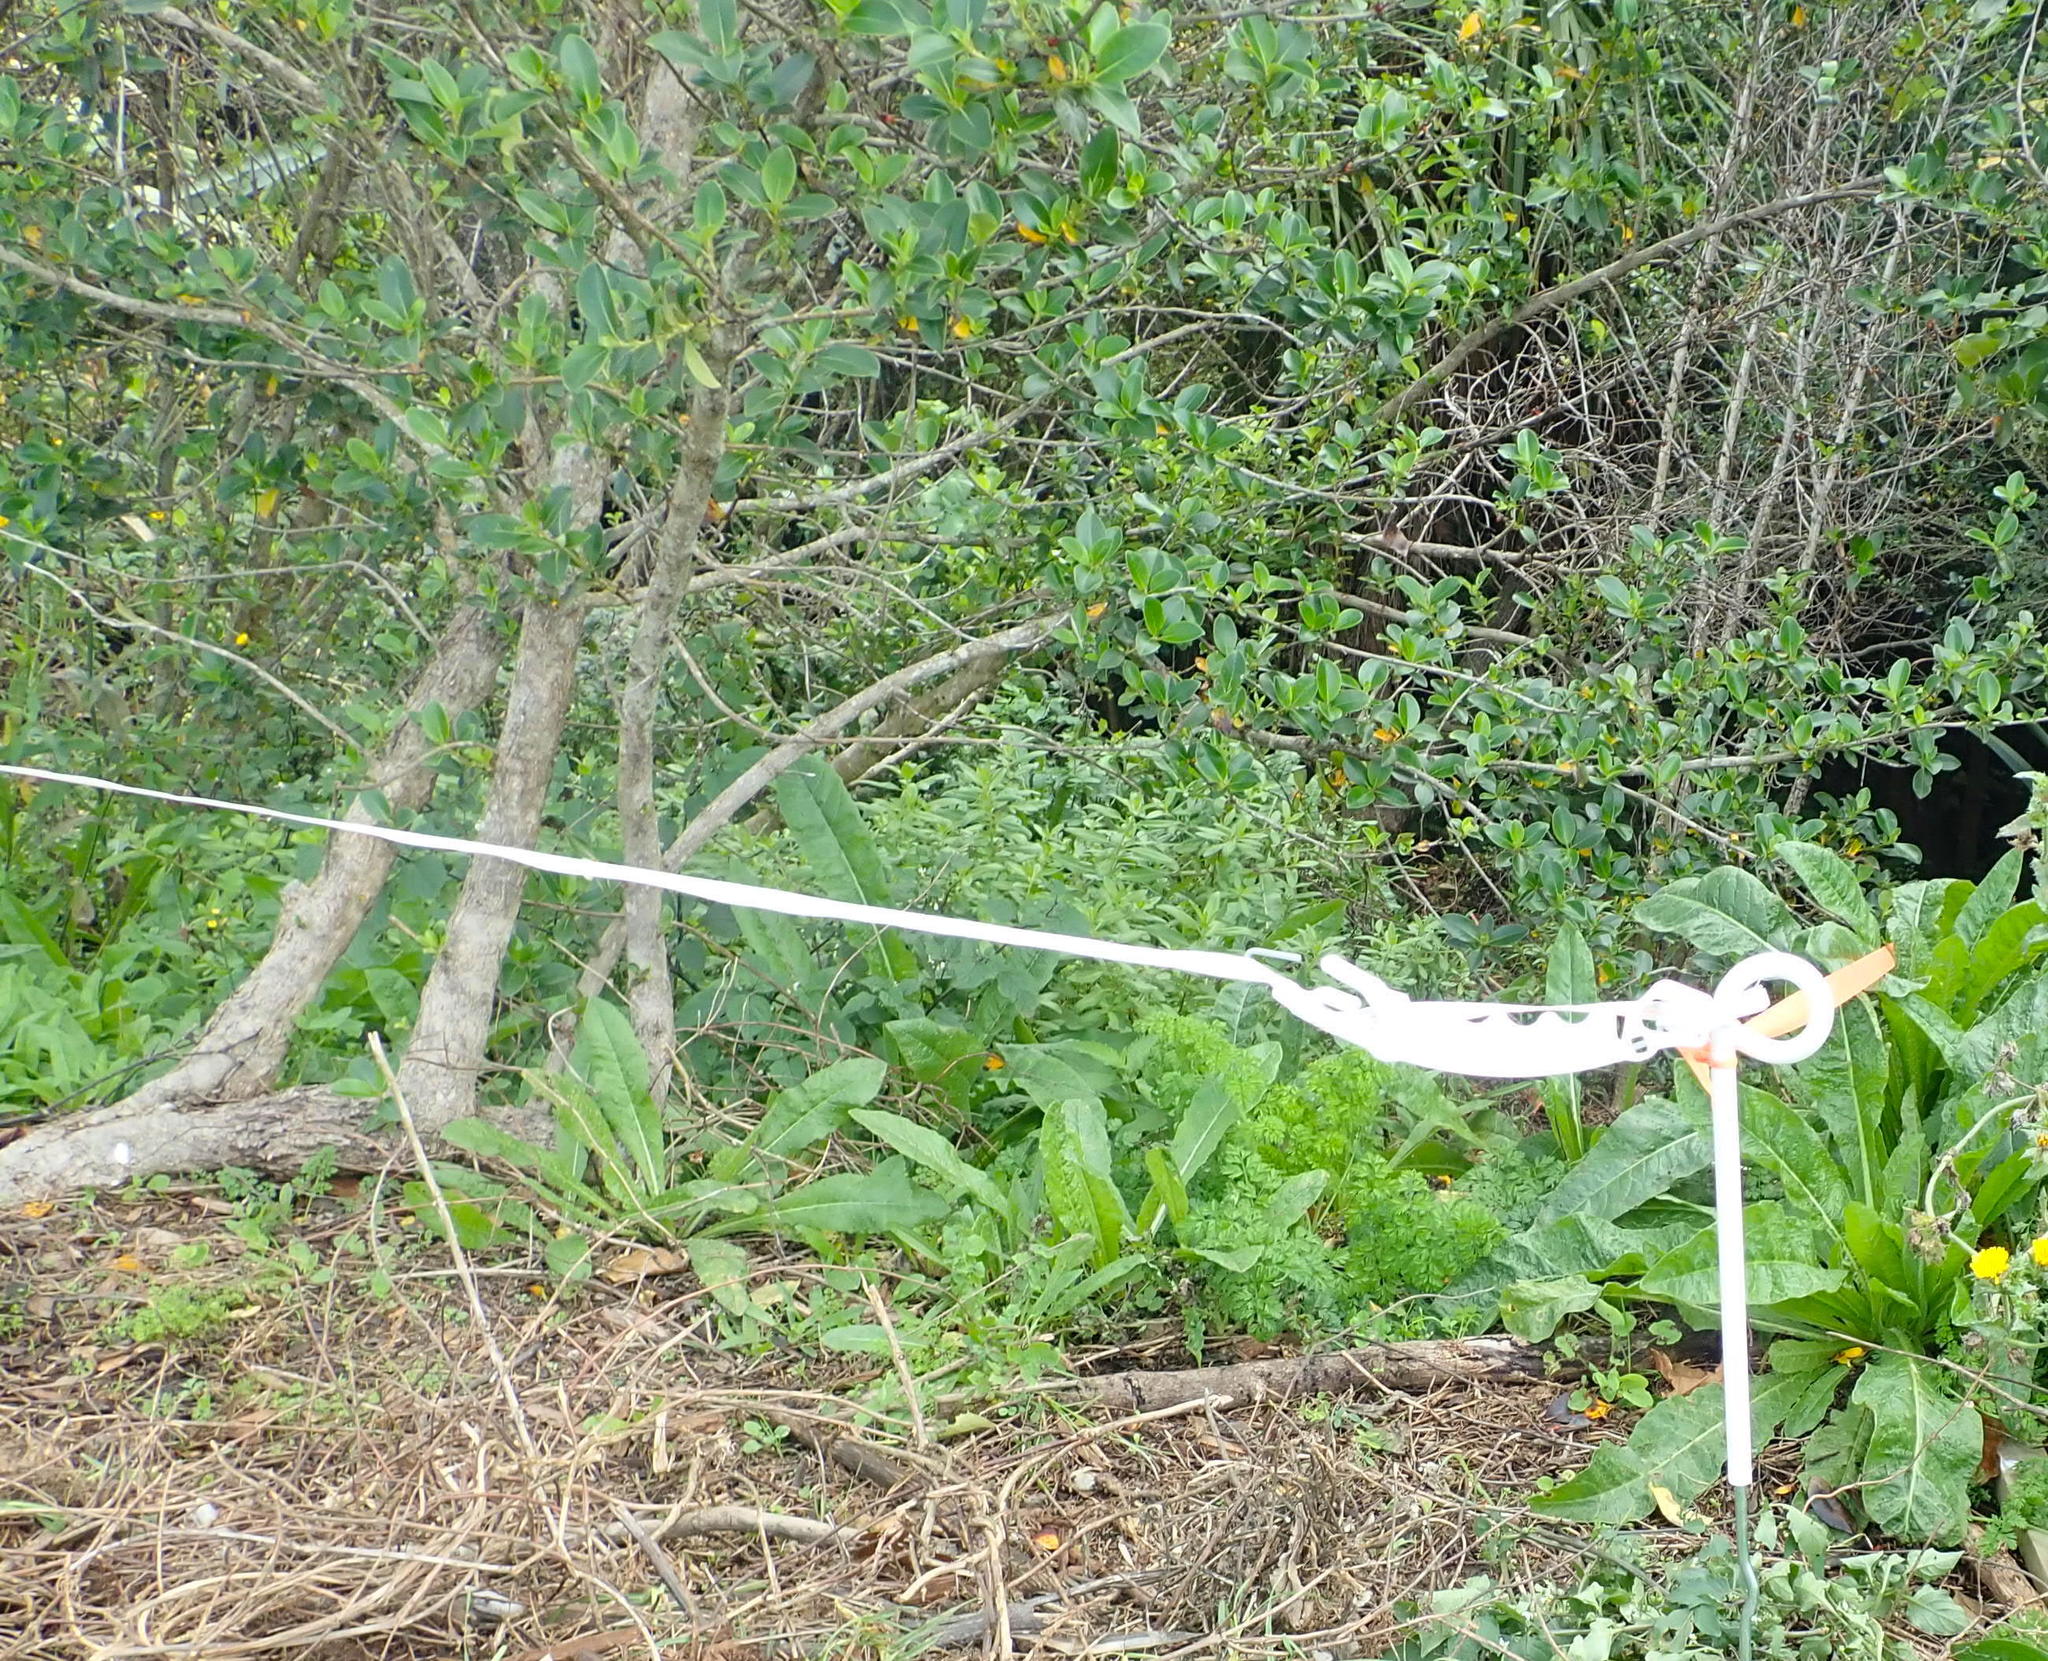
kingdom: Plantae
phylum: Tracheophyta
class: Magnoliopsida
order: Asterales
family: Asteraceae
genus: Helminthotheca
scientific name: Helminthotheca echioides
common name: Ox-tongue
